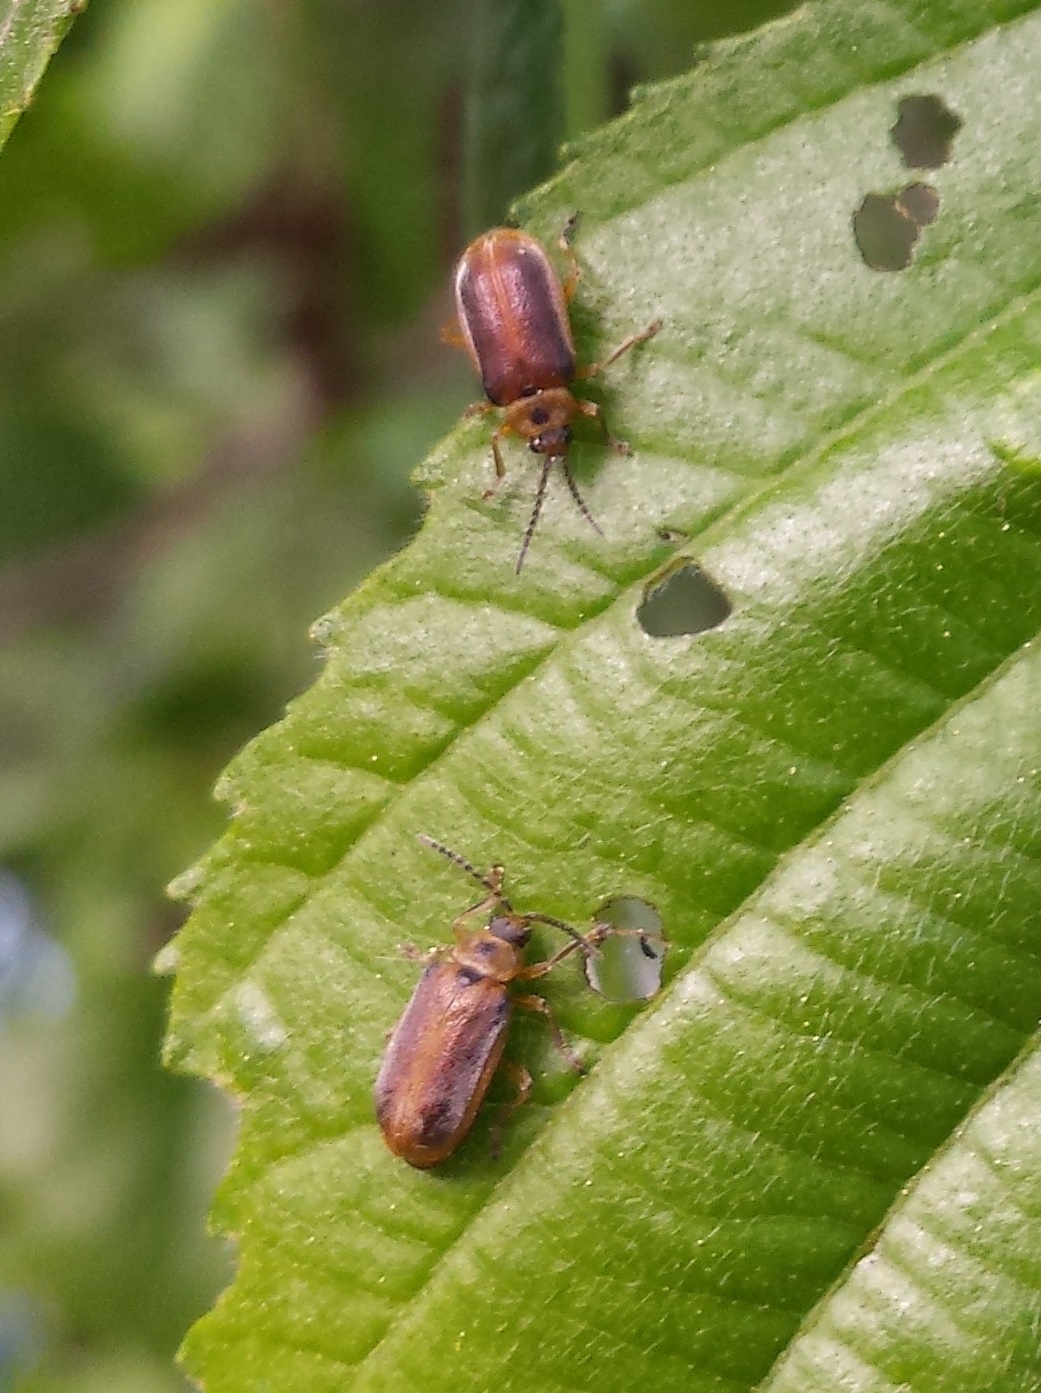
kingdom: Animalia
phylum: Arthropoda
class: Insecta
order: Coleoptera
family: Chrysomelidae
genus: Galerucella
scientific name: Galerucella lineola
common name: Brown willow beetle
